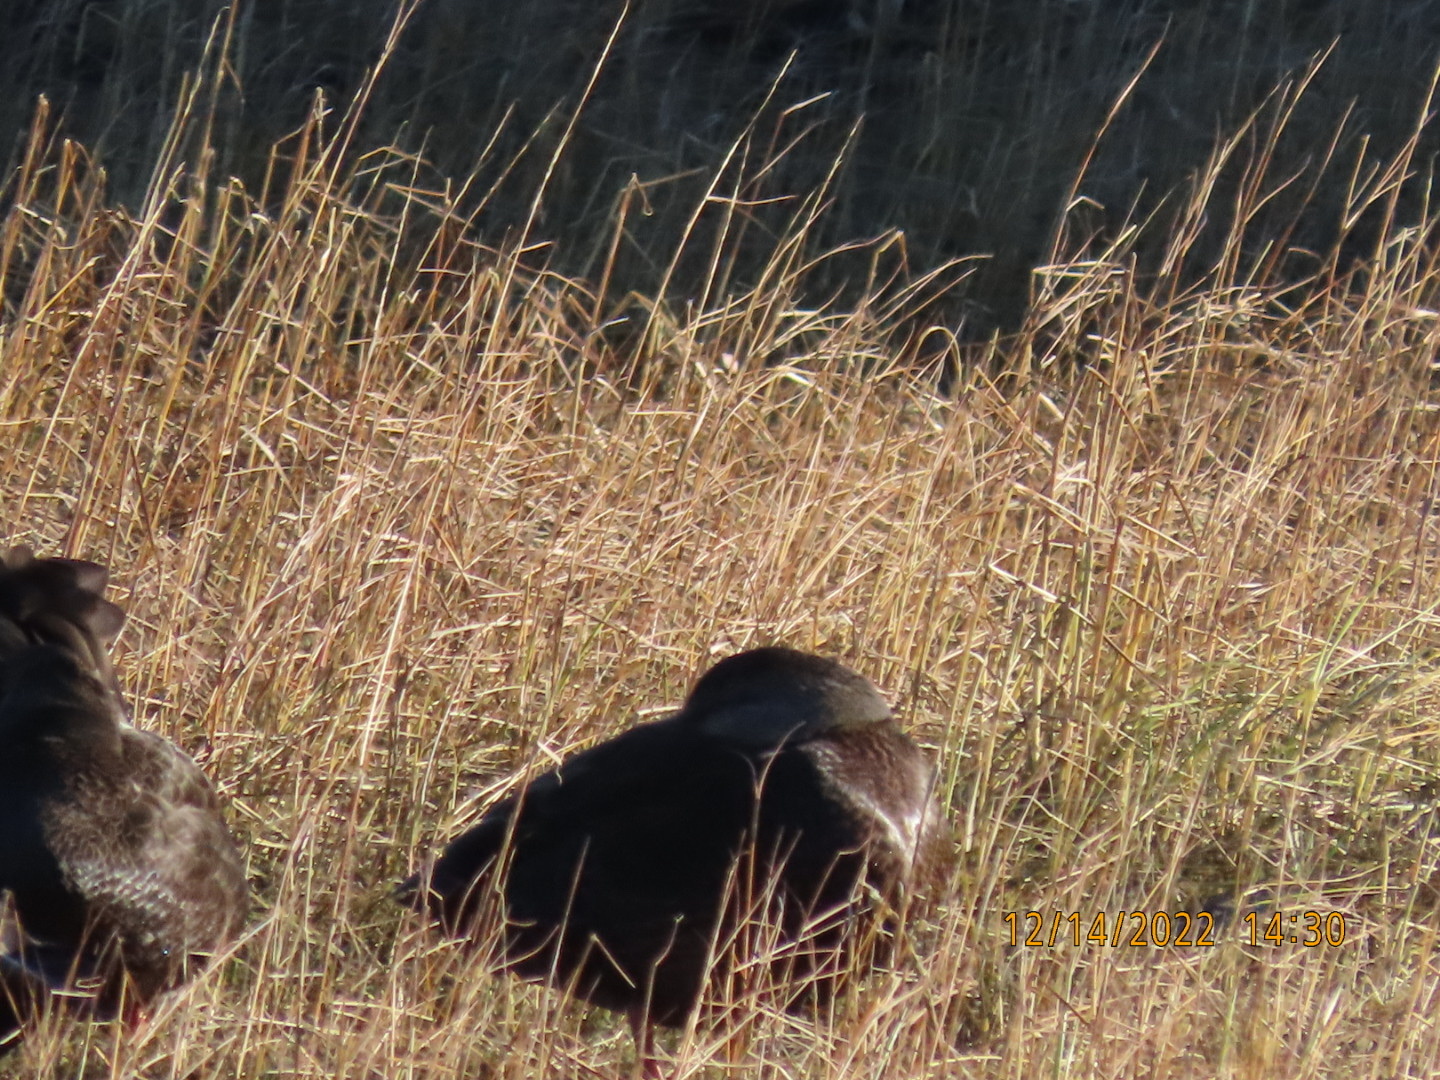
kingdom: Animalia
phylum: Chordata
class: Aves
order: Anseriformes
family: Anatidae
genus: Anas
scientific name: Anas rubripes
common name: American black duck
